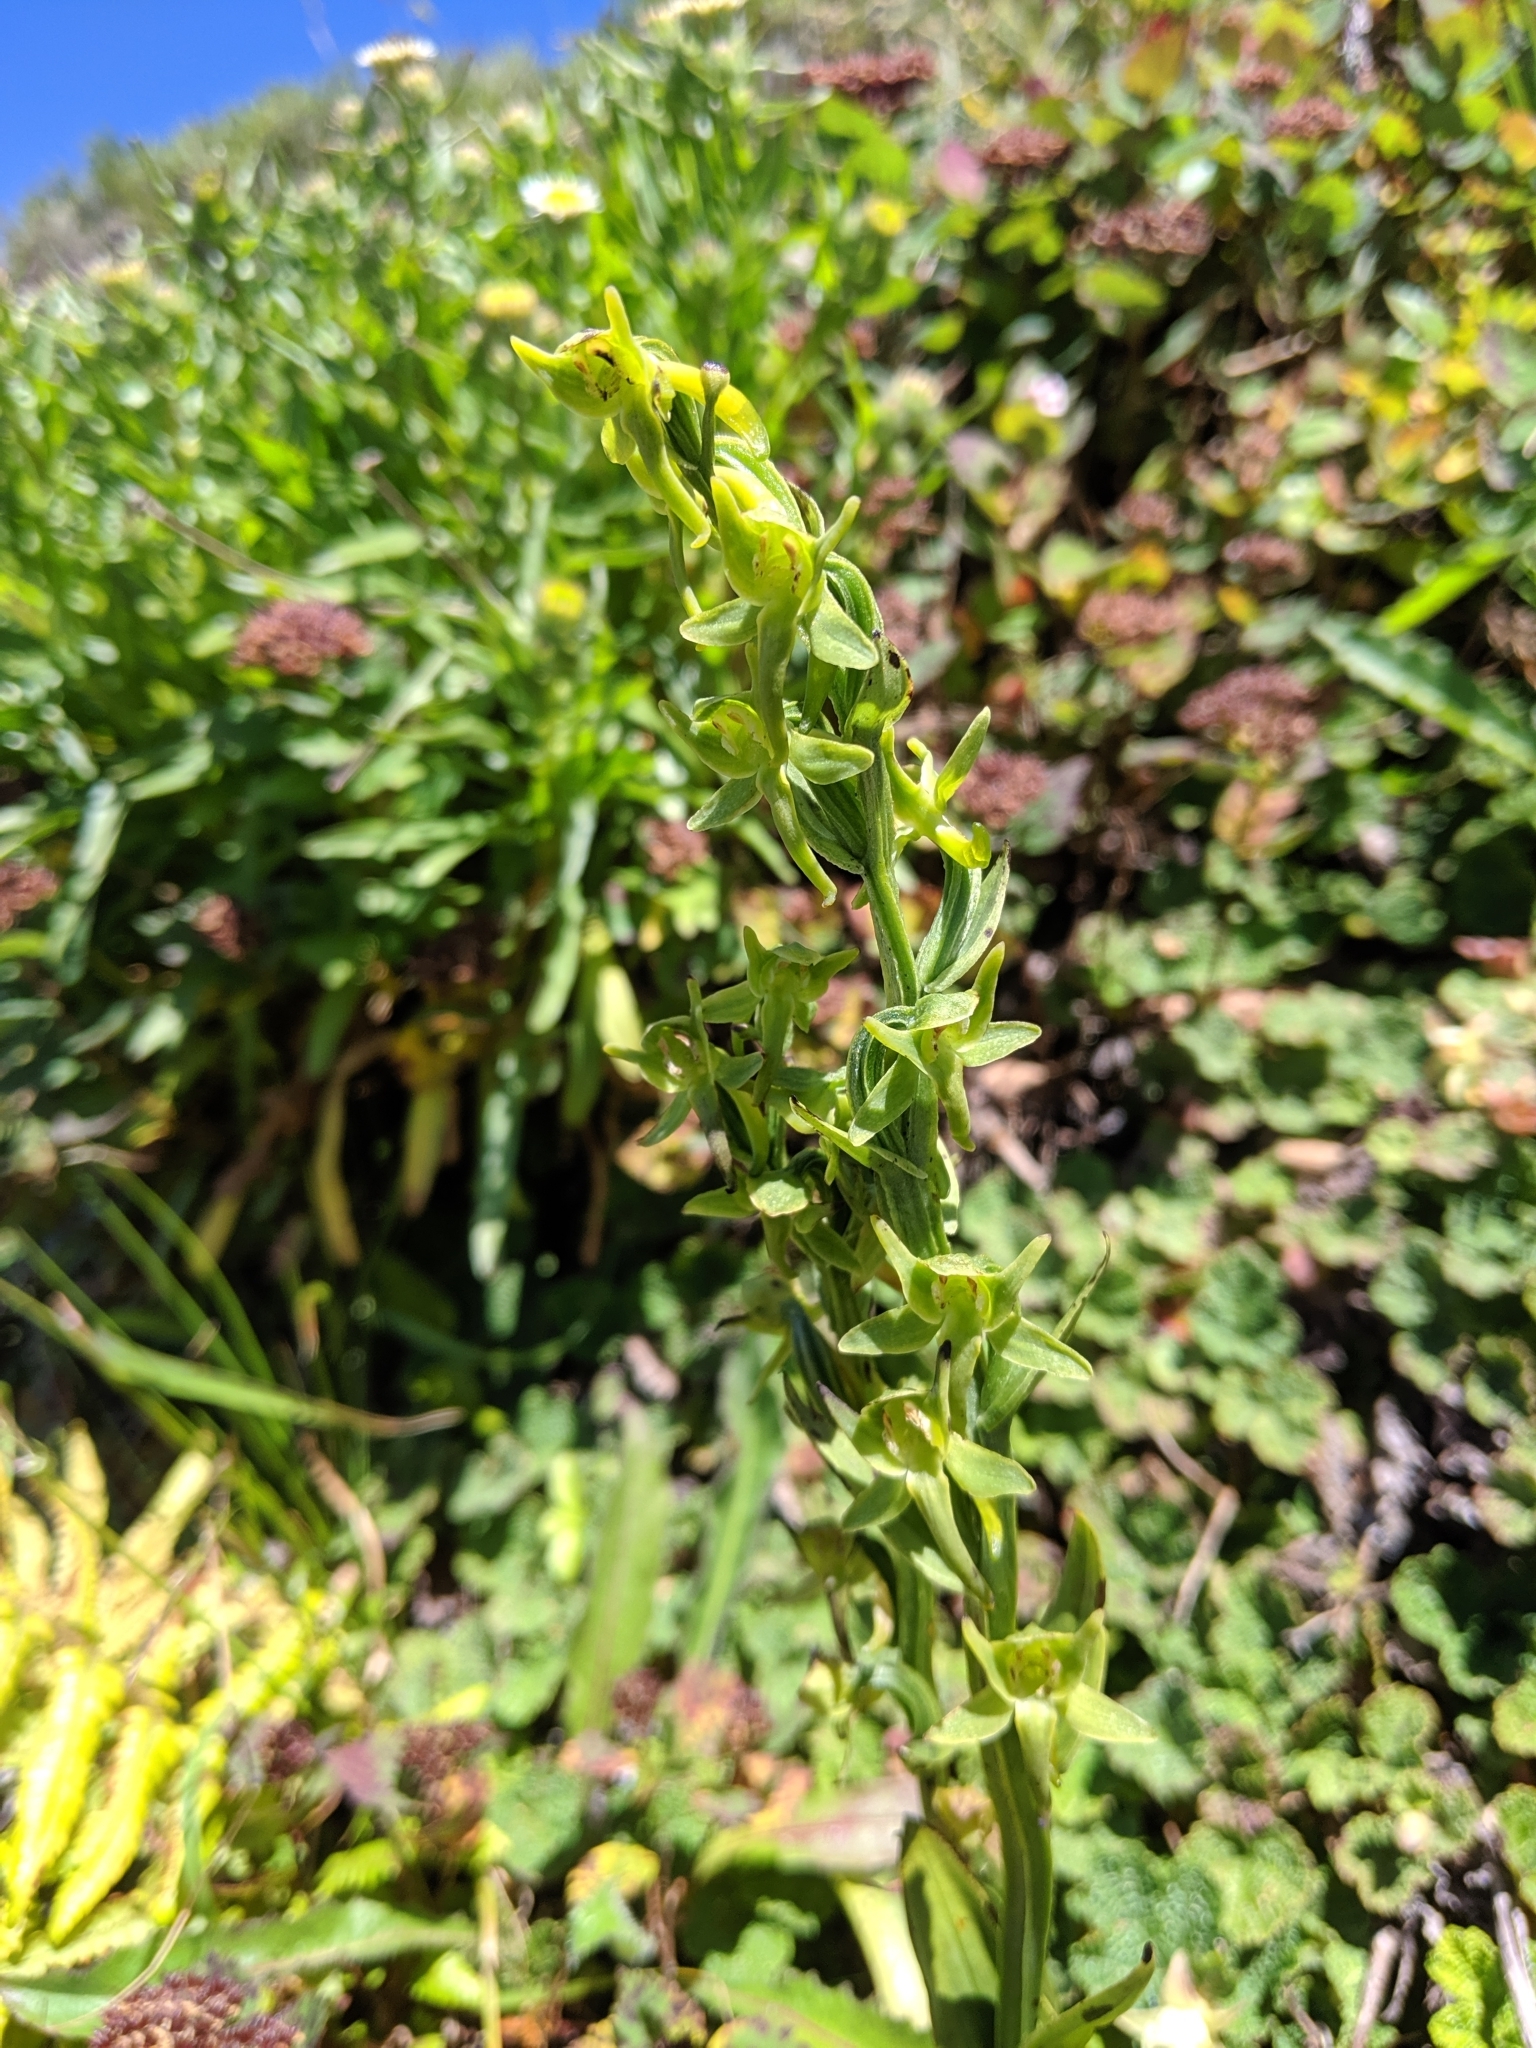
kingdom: Plantae
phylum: Tracheophyta
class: Liliopsida
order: Asparagales
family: Orchidaceae
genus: Platanthera
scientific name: Platanthera pachyglossa
